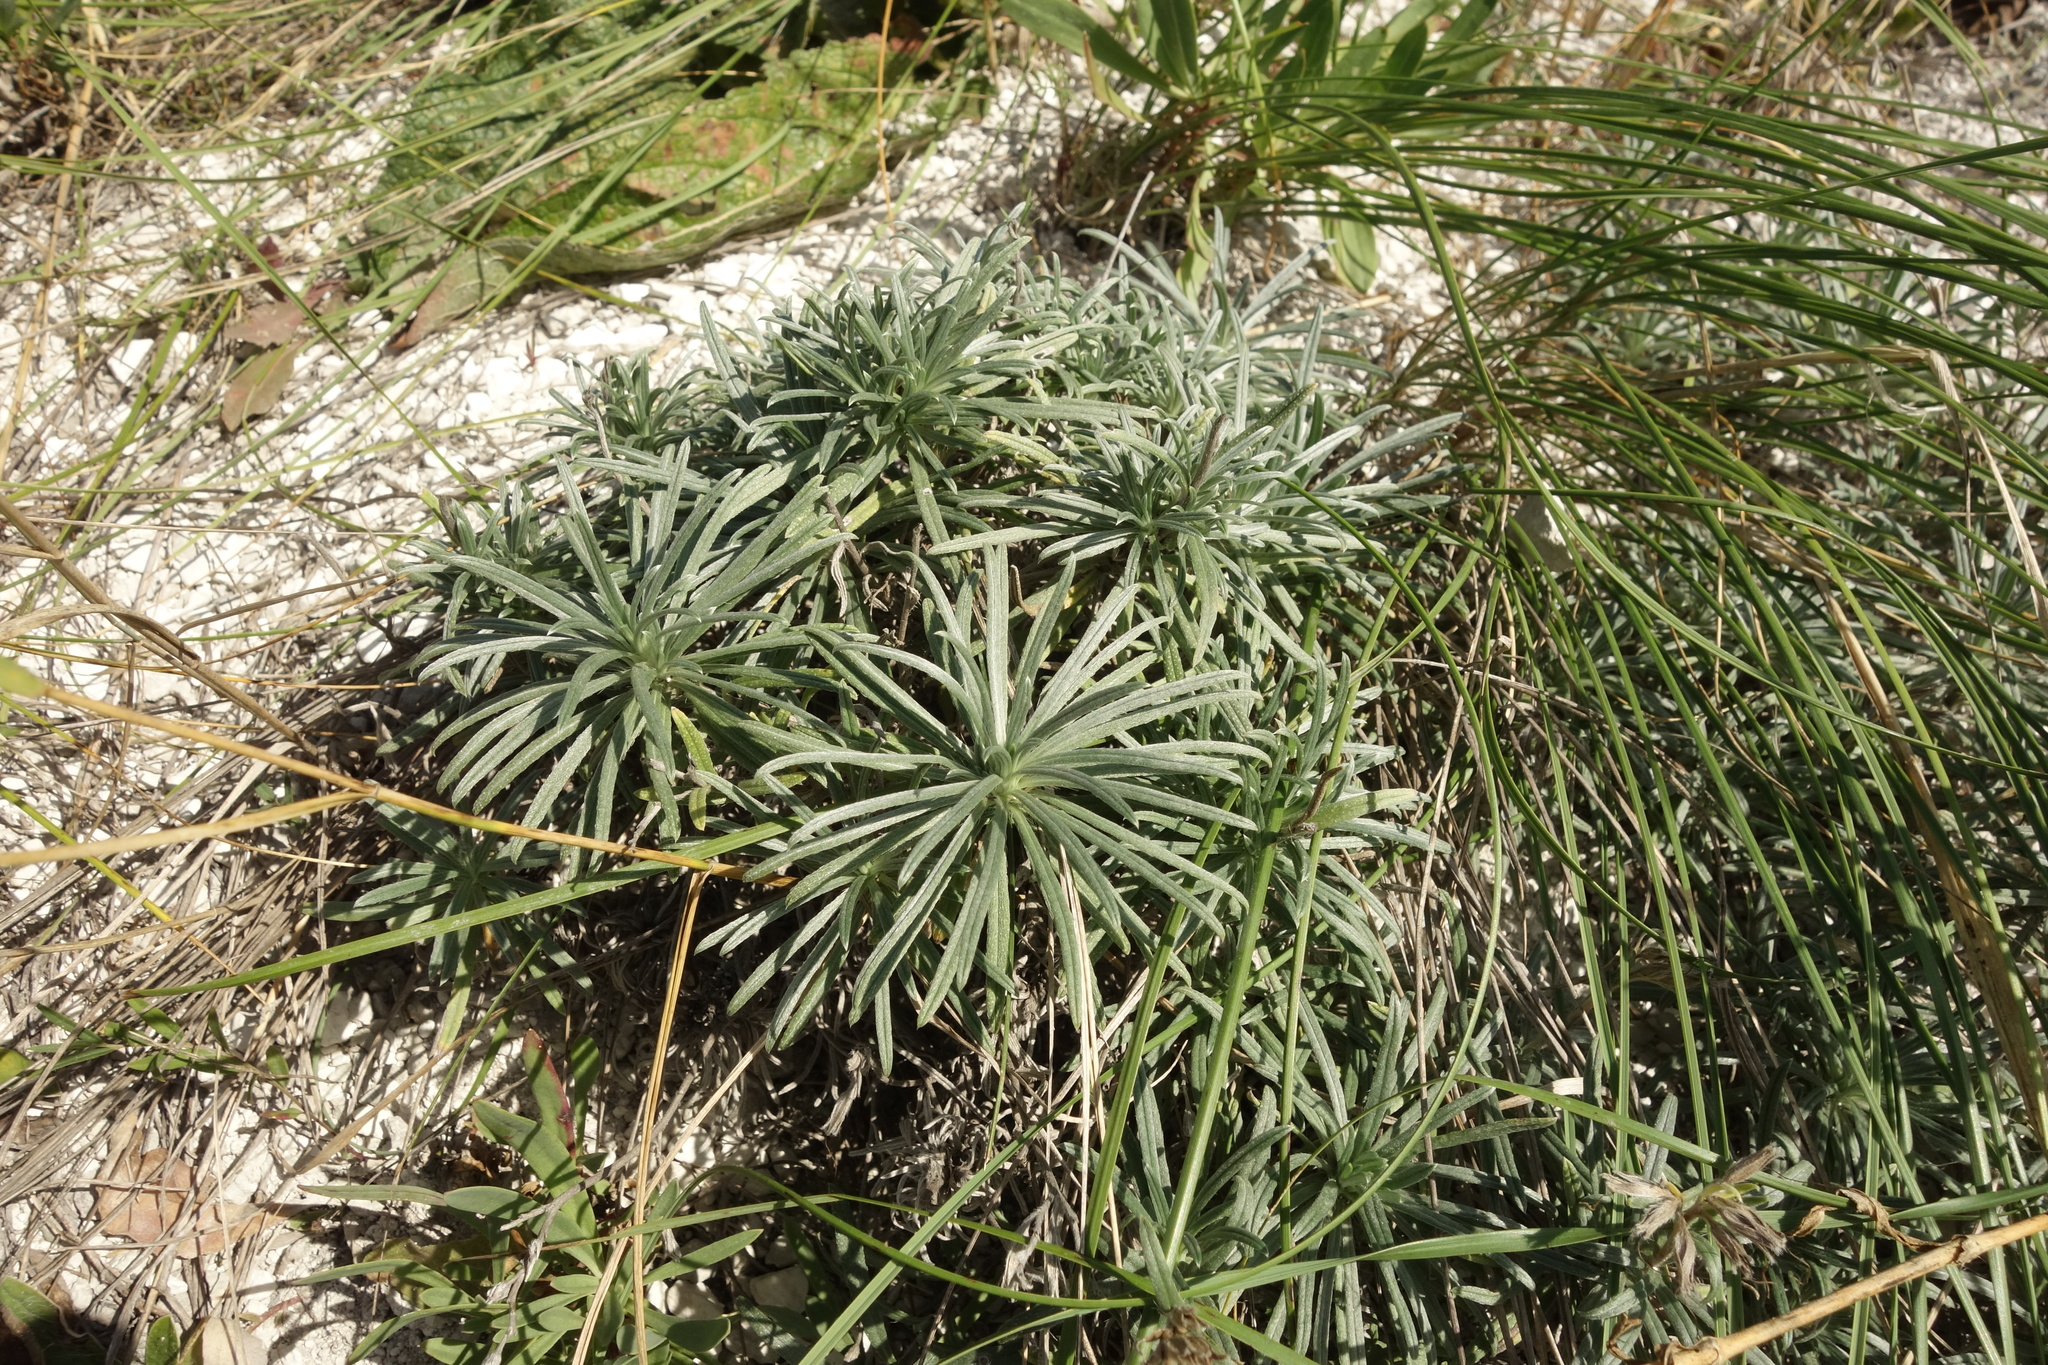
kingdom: Plantae
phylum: Tracheophyta
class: Magnoliopsida
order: Boraginales
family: Boraginaceae
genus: Onosma
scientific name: Onosma simplicissima
